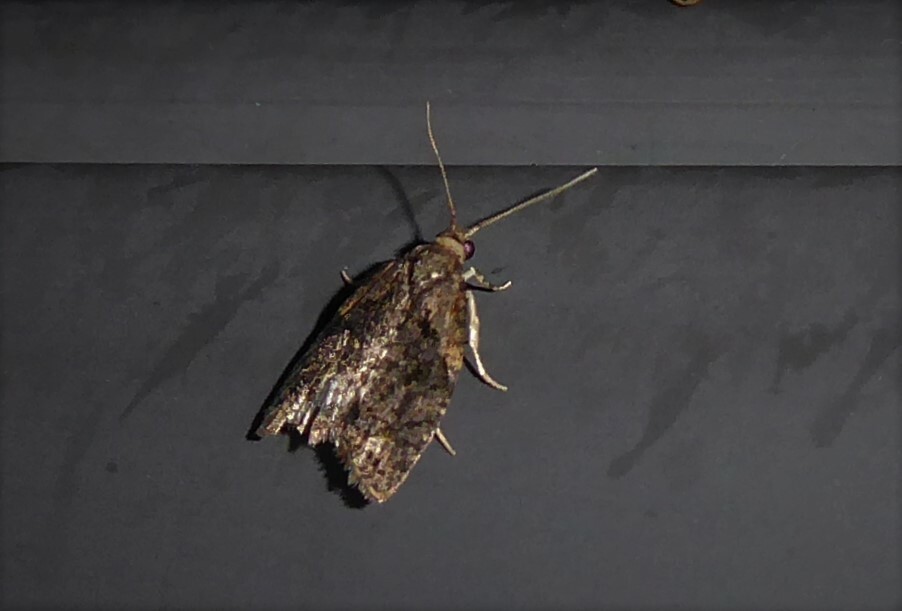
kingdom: Animalia
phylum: Arthropoda
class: Insecta
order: Lepidoptera
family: Tortricidae
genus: Capua
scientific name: Capua intractana
